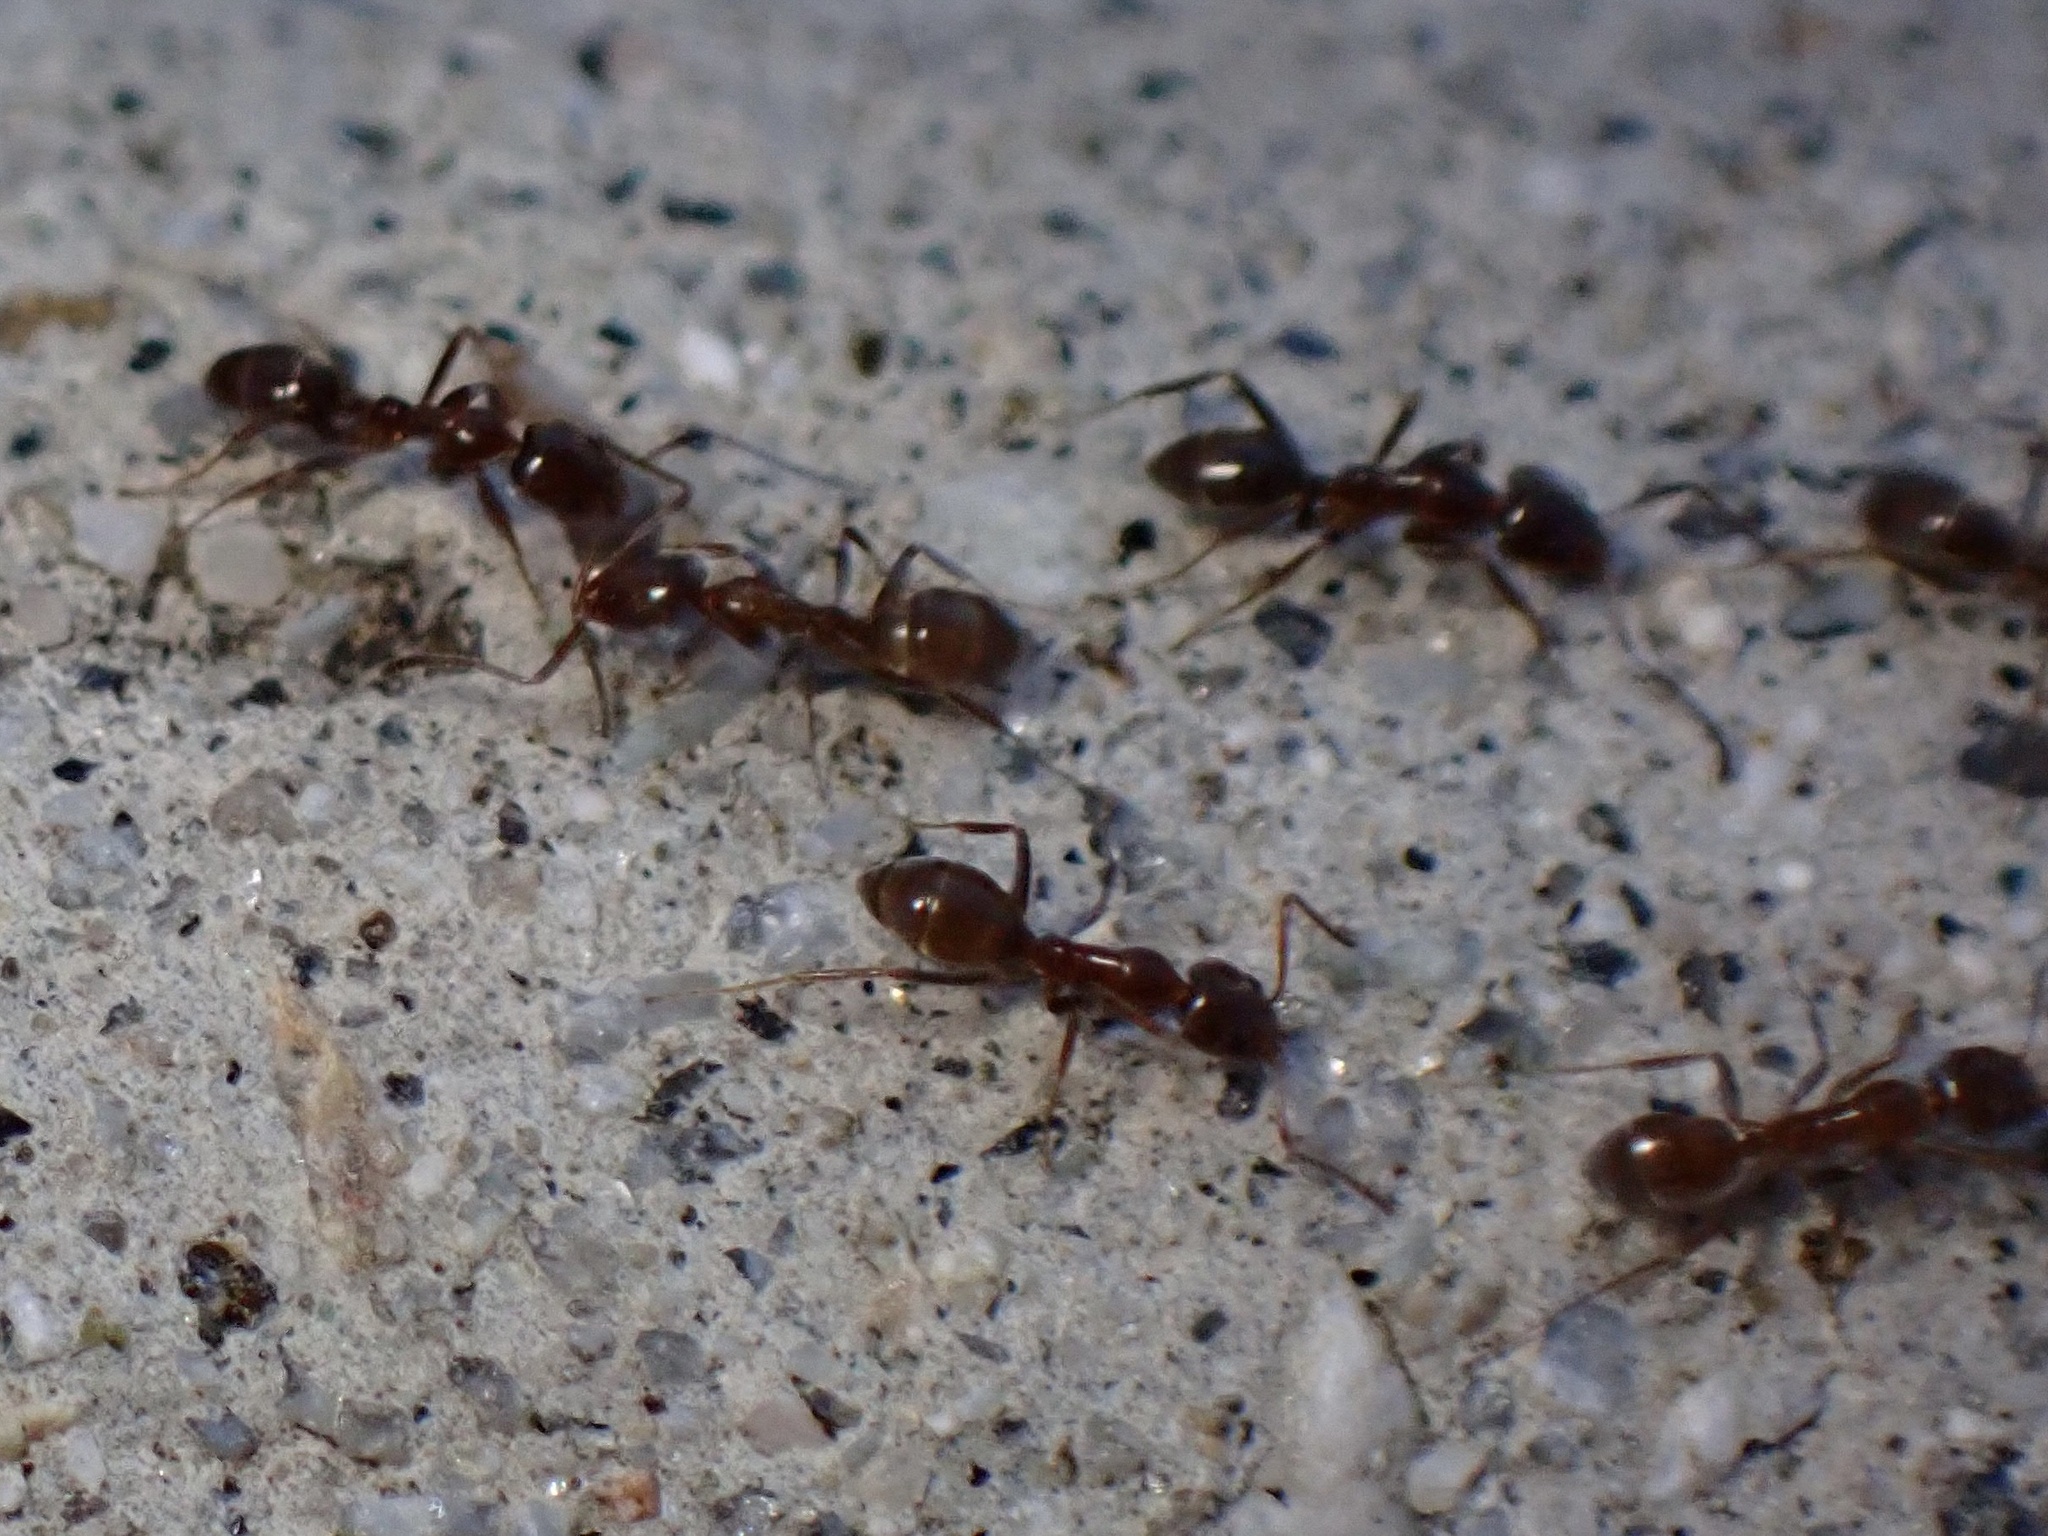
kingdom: Animalia
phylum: Arthropoda
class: Insecta
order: Hymenoptera
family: Formicidae
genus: Linepithema
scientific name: Linepithema humile
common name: Argentine ant
